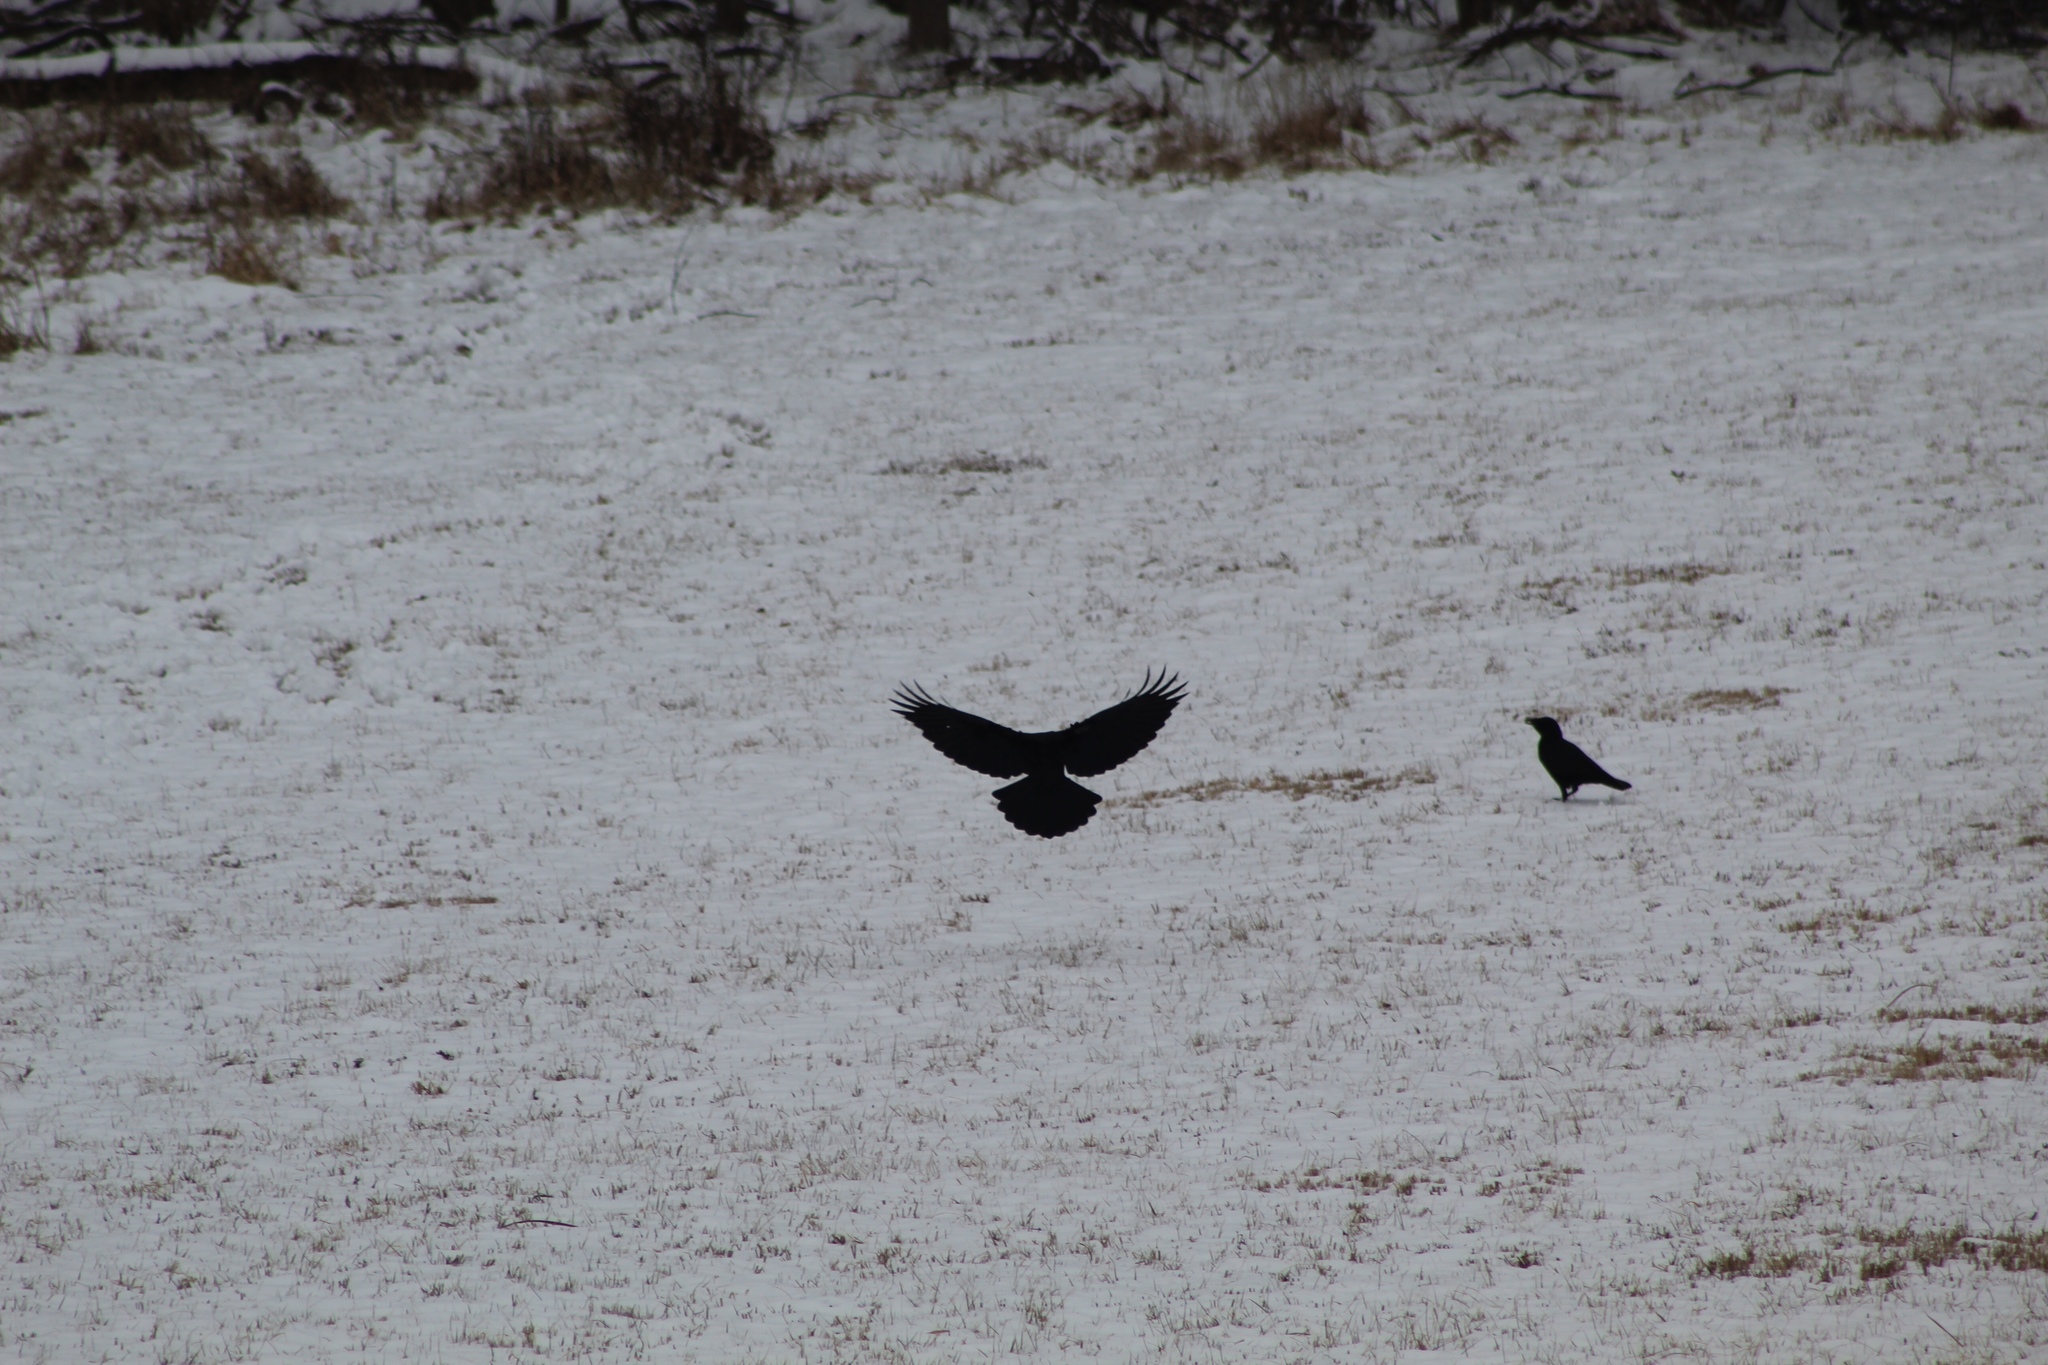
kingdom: Animalia
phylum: Chordata
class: Aves
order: Passeriformes
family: Corvidae
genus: Corvus
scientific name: Corvus brachyrhynchos
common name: American crow
